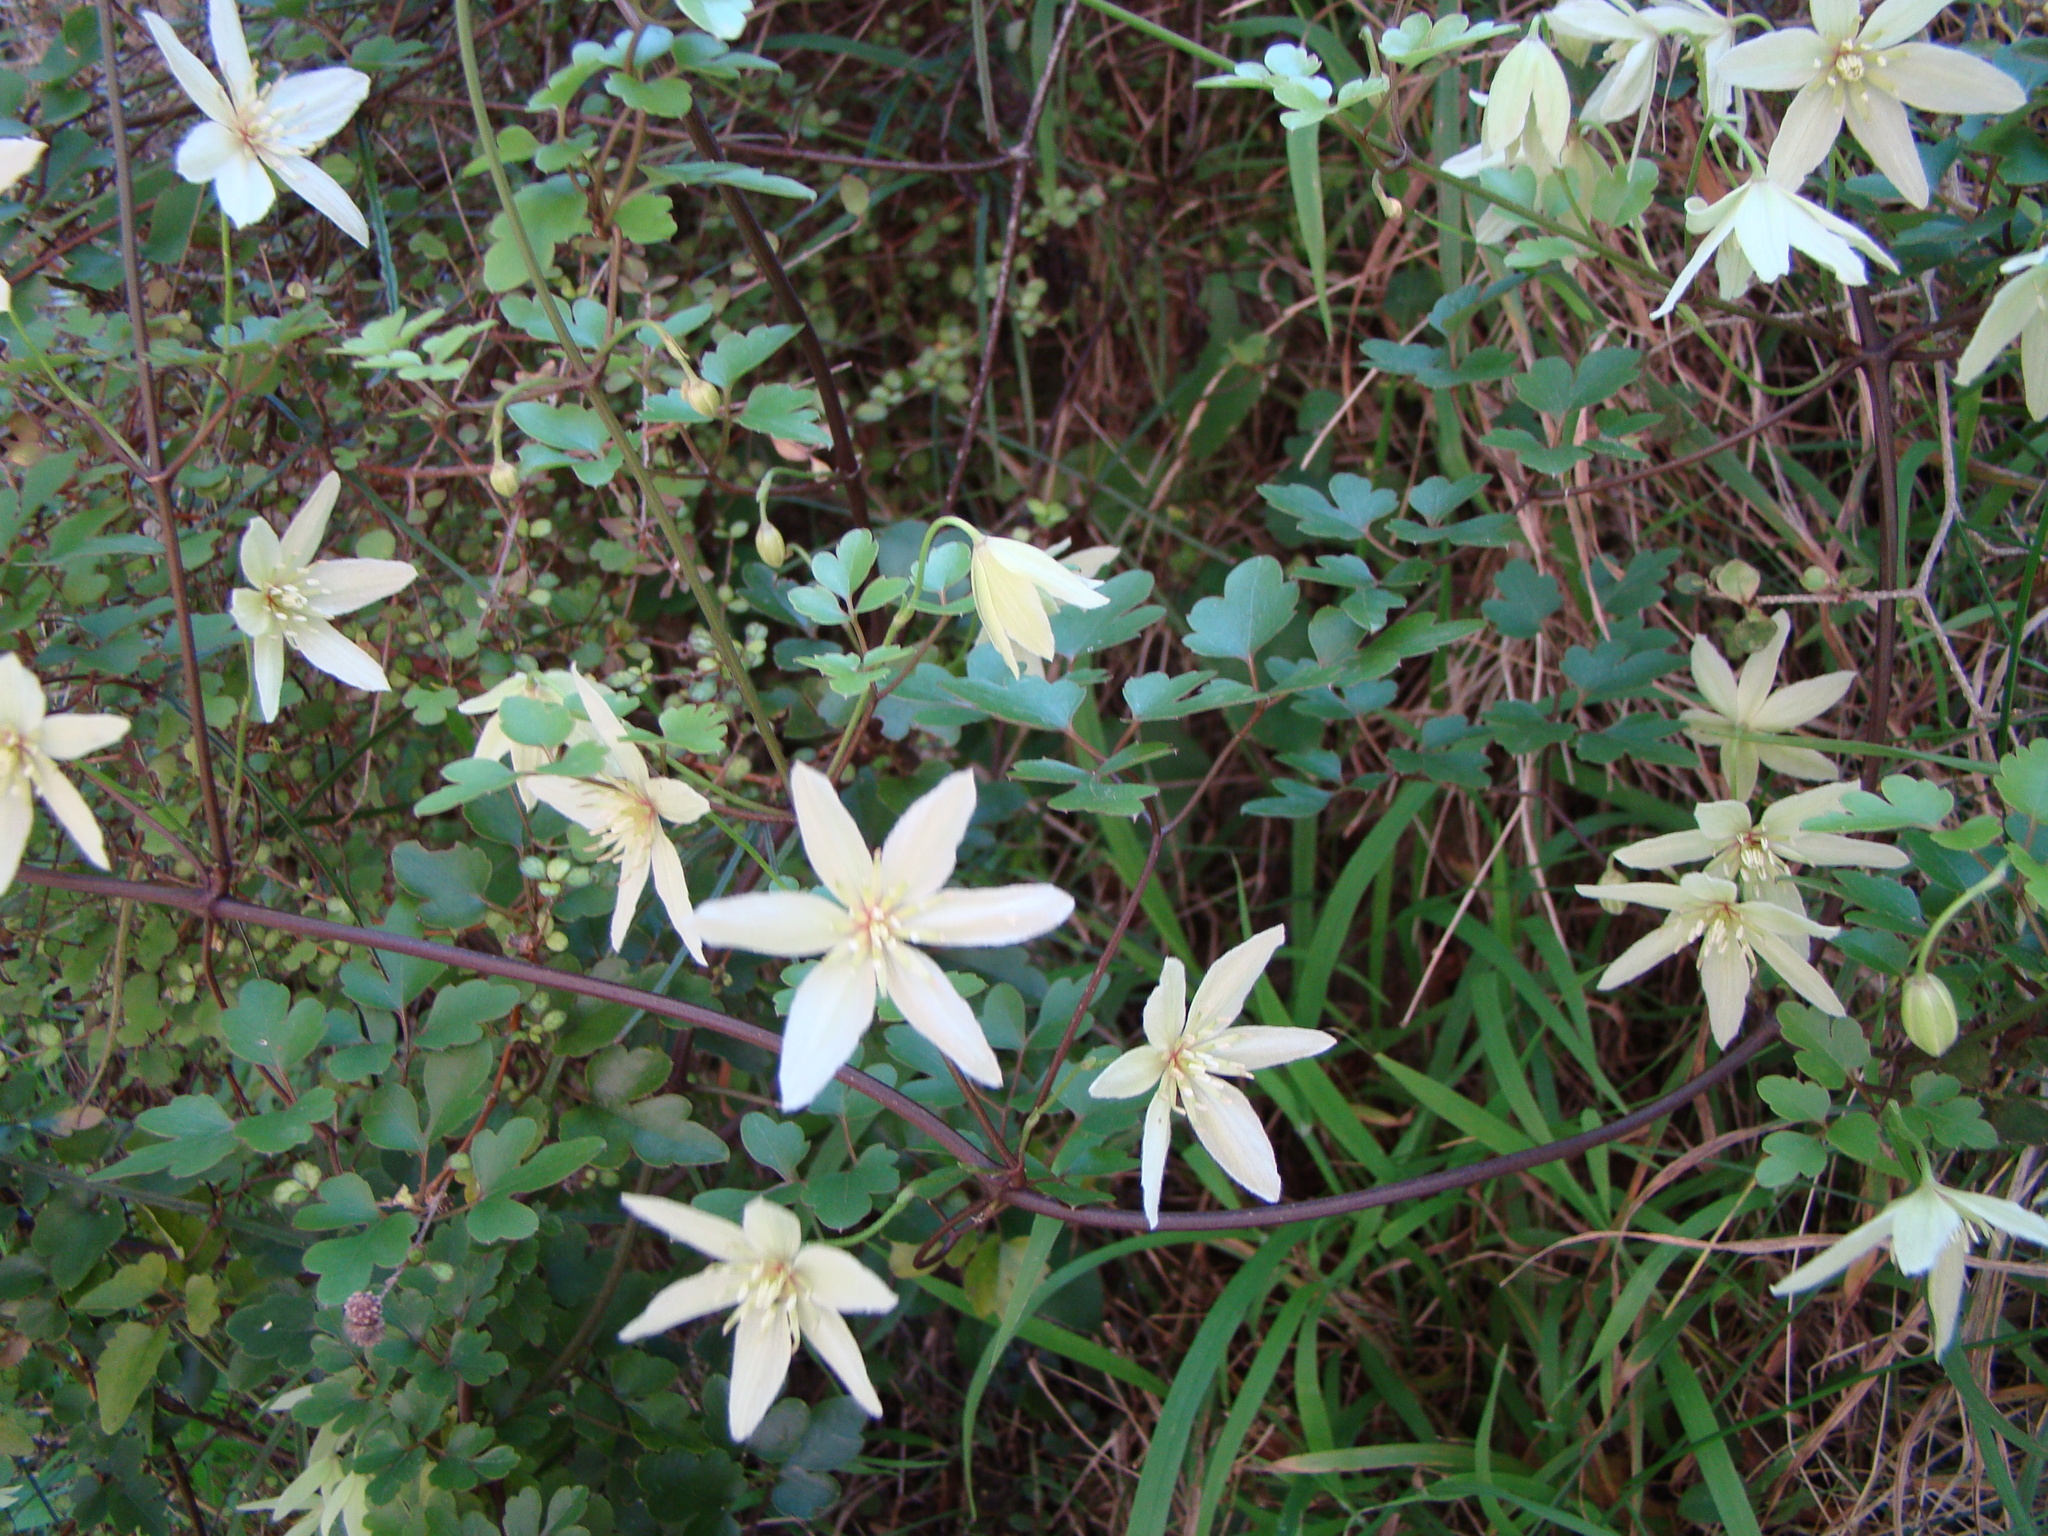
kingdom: Plantae
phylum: Tracheophyta
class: Magnoliopsida
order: Ranunculales
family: Ranunculaceae
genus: Clematis
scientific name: Clematis forsteri
